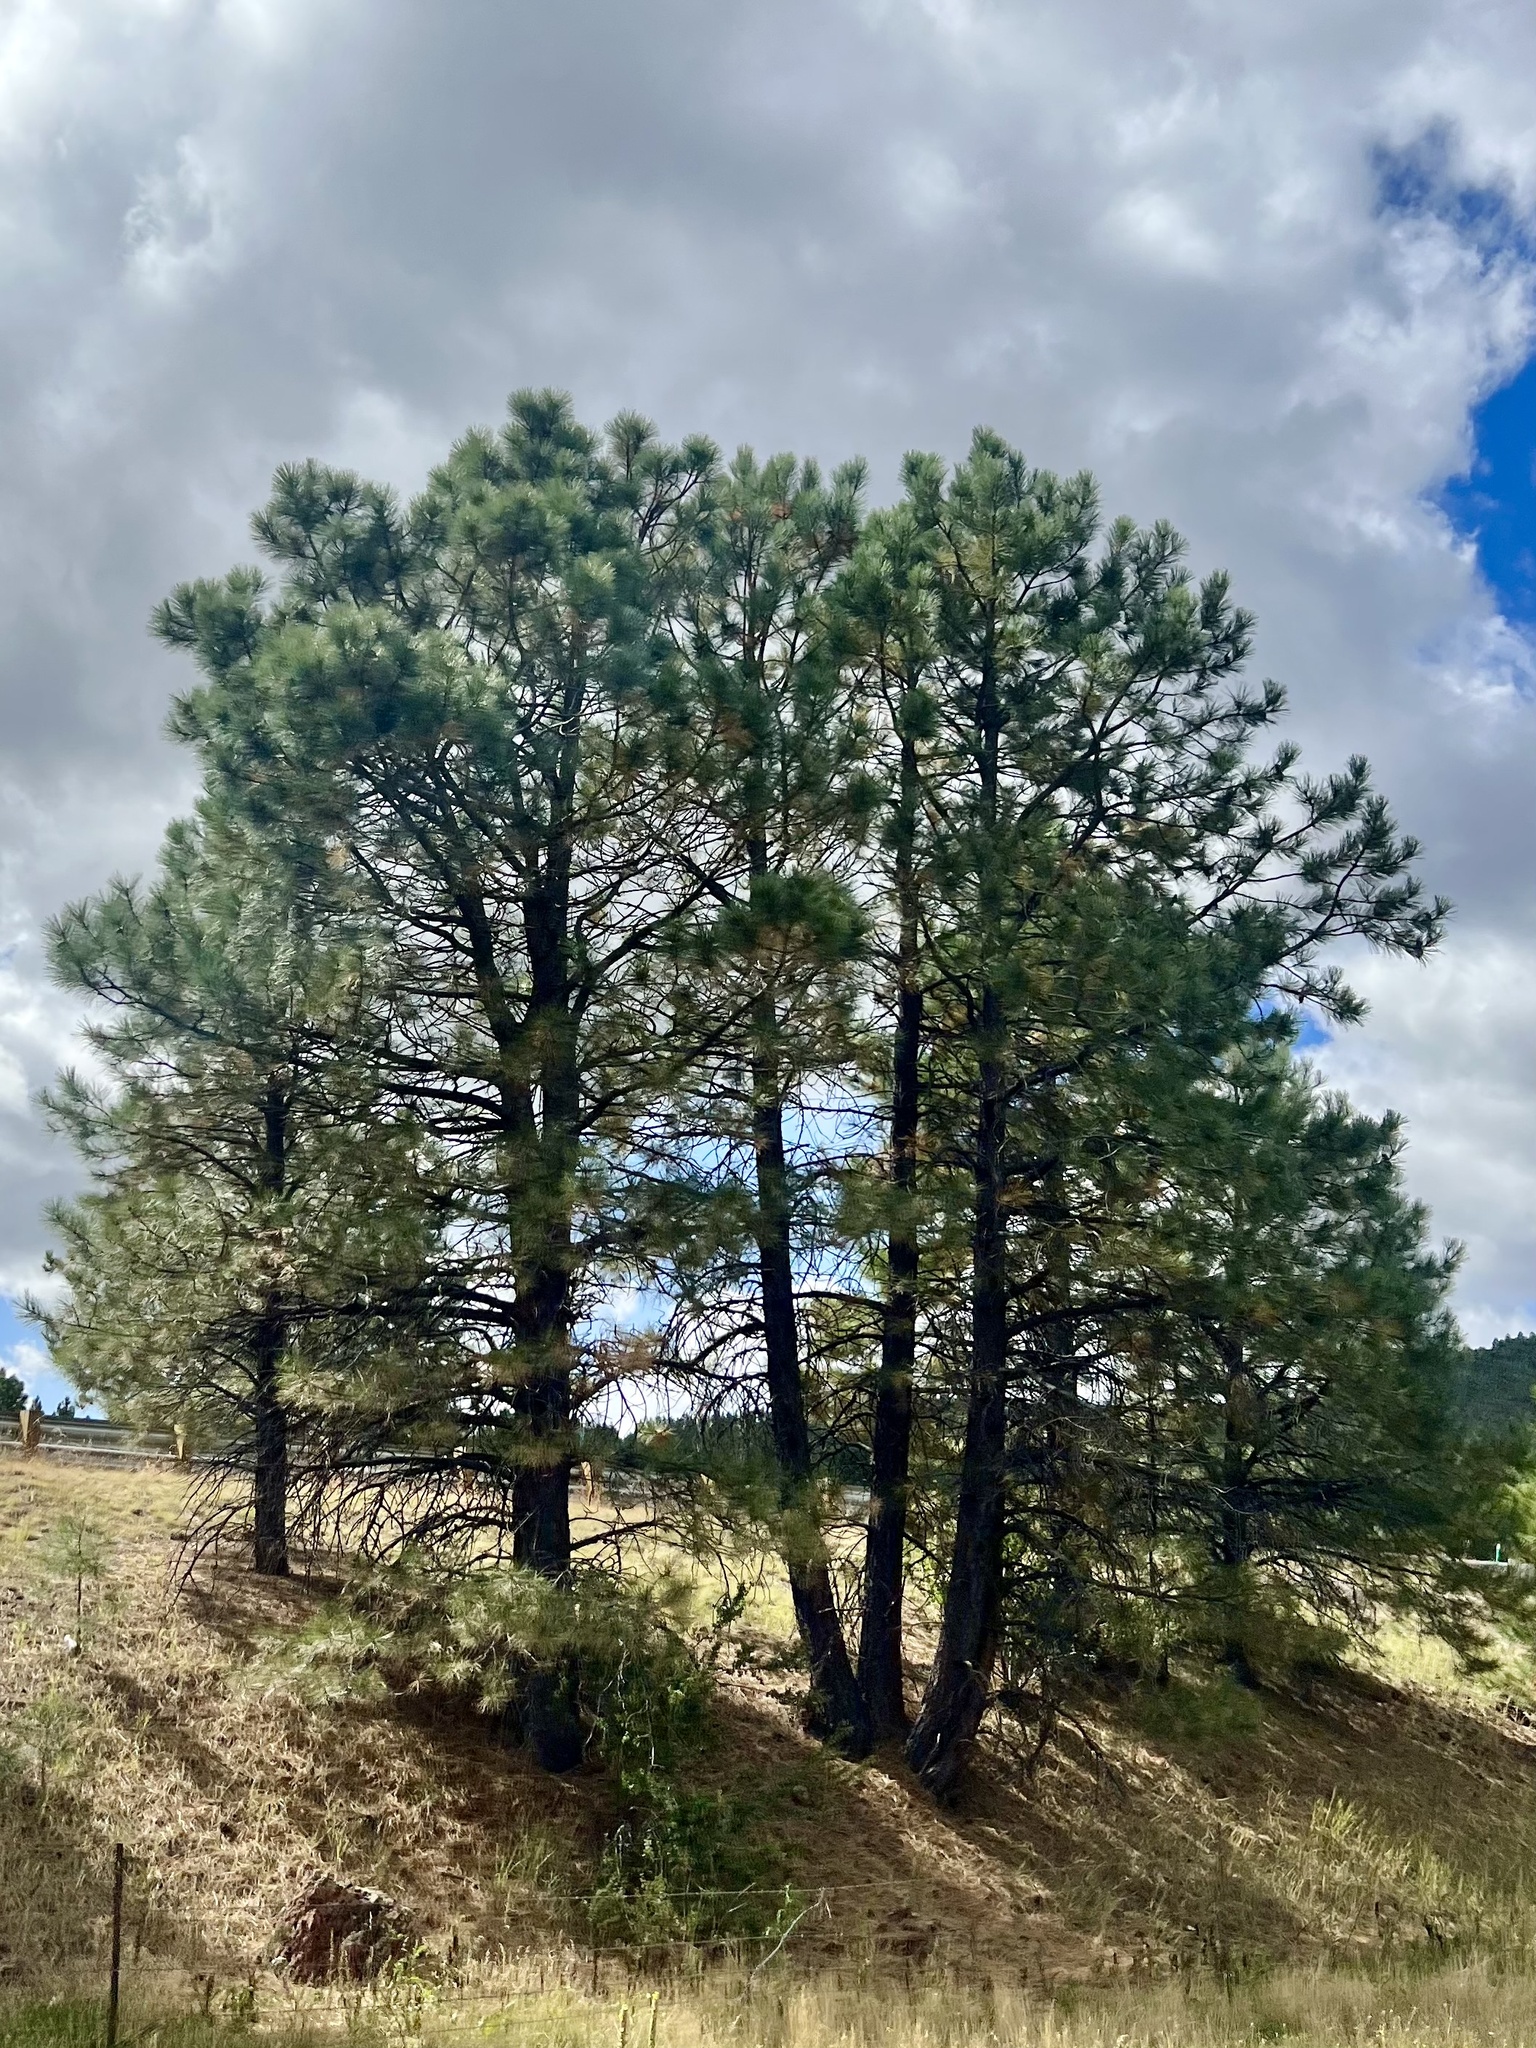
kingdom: Plantae
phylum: Tracheophyta
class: Pinopsida
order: Pinales
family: Pinaceae
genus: Pinus
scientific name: Pinus ponderosa
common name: Western yellow-pine
